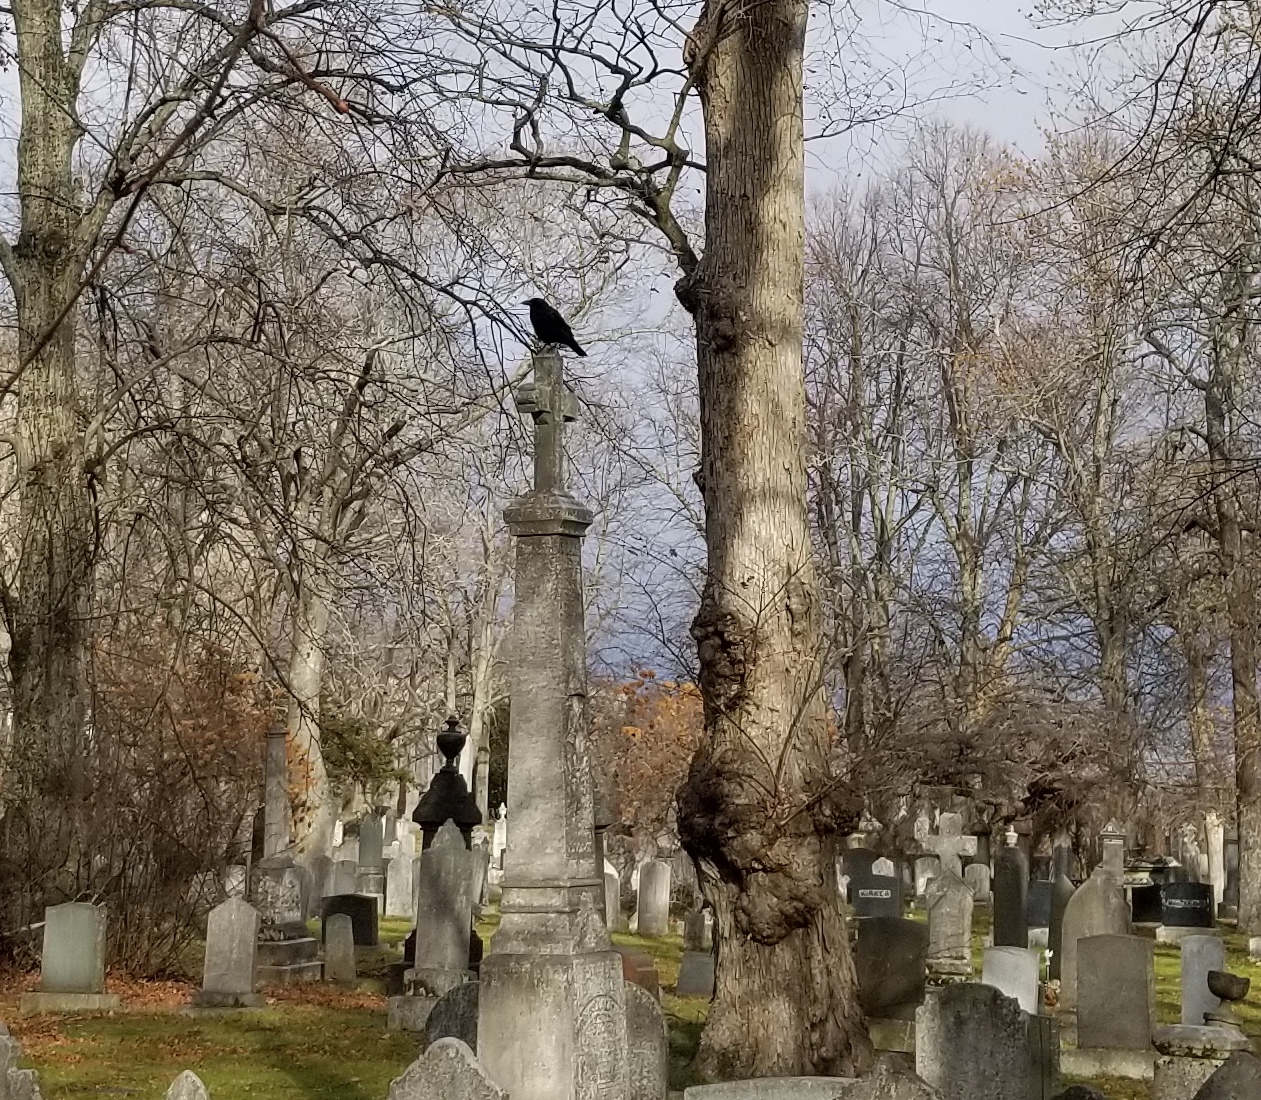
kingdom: Animalia
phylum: Chordata
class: Aves
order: Passeriformes
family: Corvidae
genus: Corvus
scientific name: Corvus brachyrhynchos
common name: American crow
